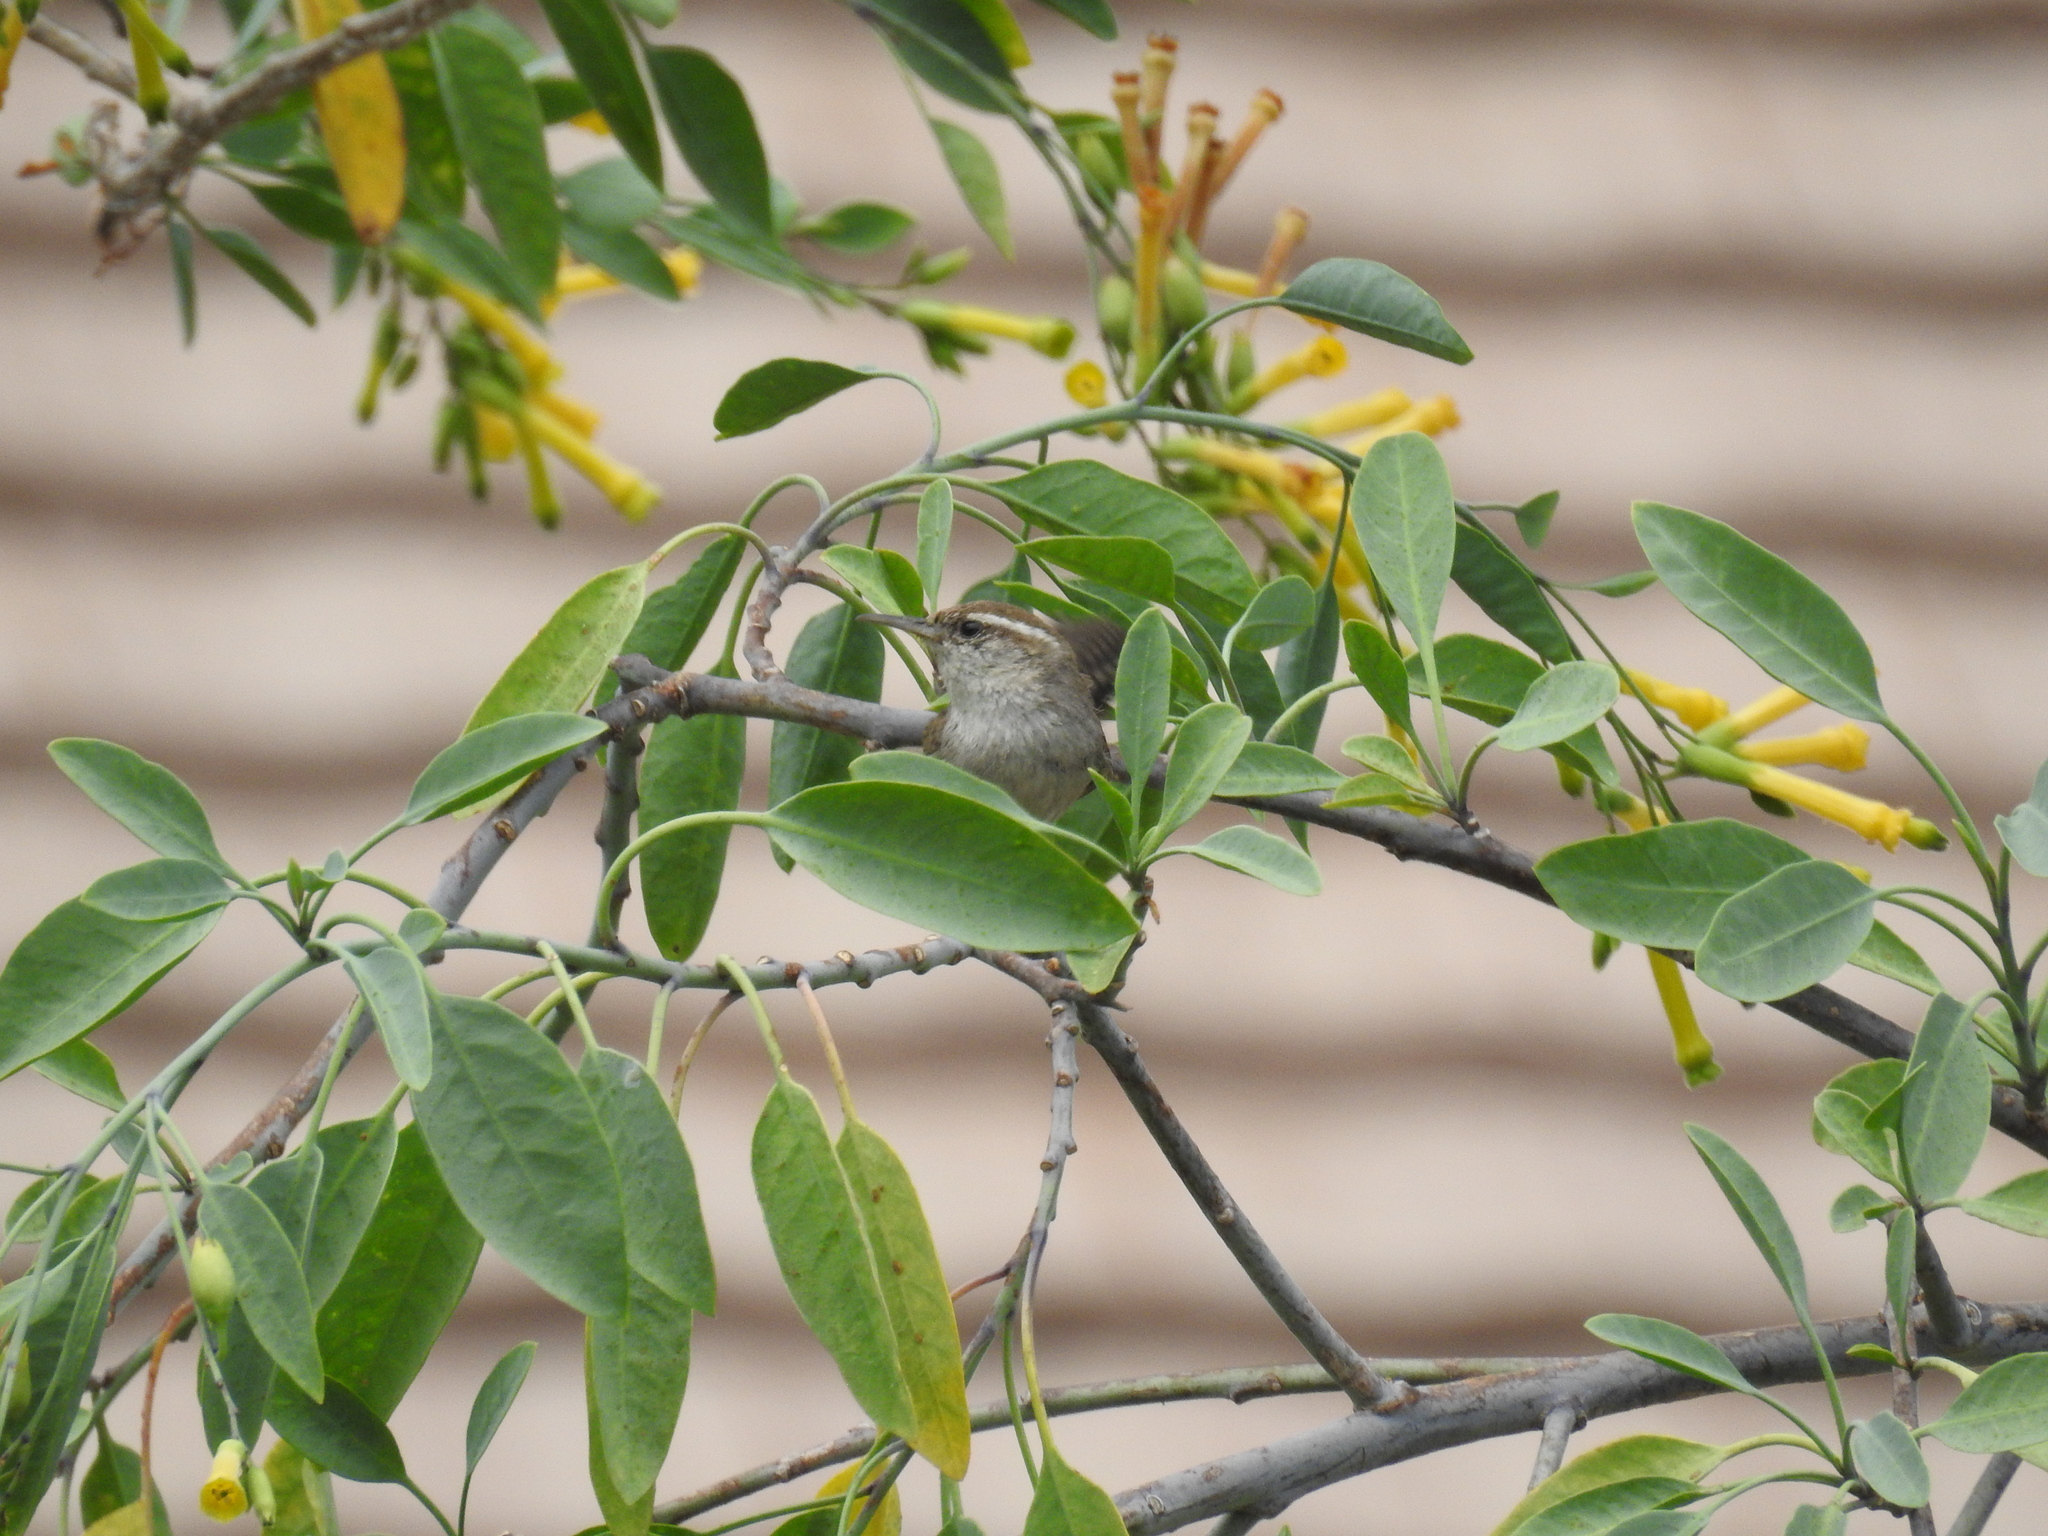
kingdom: Animalia
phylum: Chordata
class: Aves
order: Passeriformes
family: Troglodytidae
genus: Thryomanes
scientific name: Thryomanes bewickii
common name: Bewick's wren
